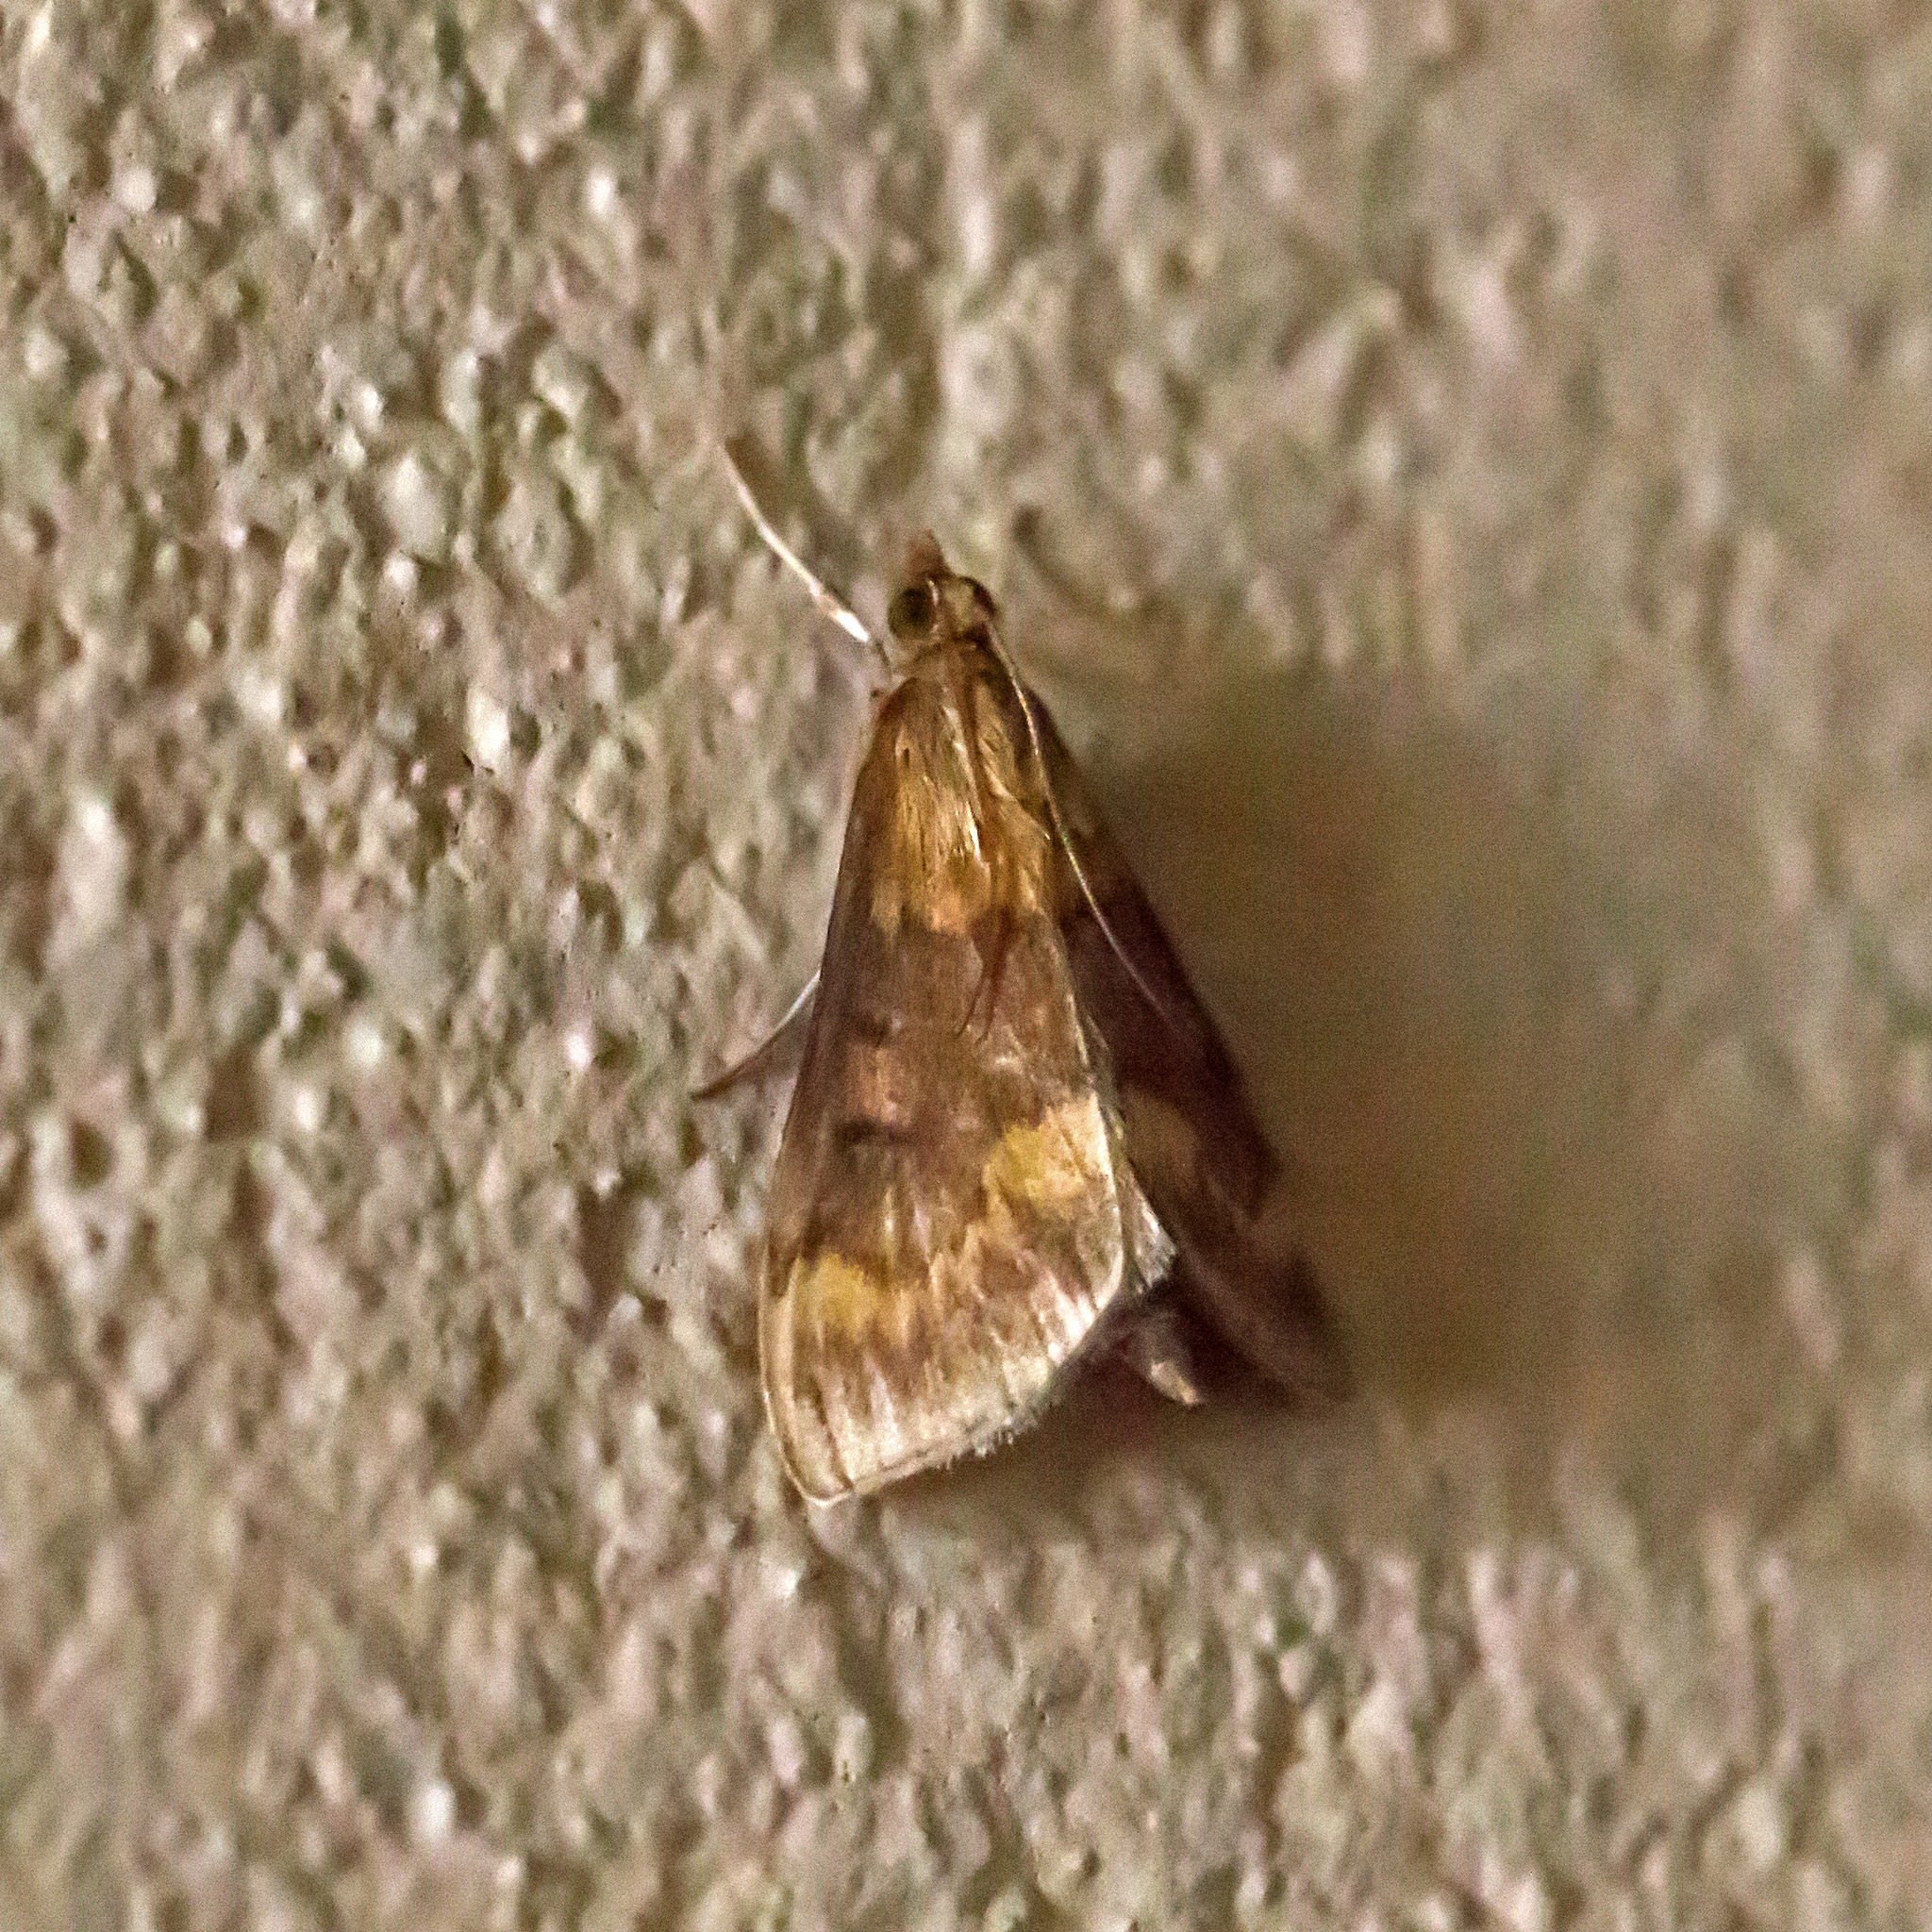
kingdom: Animalia
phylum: Arthropoda
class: Insecta
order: Lepidoptera
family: Crambidae
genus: Ostrinia
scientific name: Ostrinia nubilalis
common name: European corn borer
